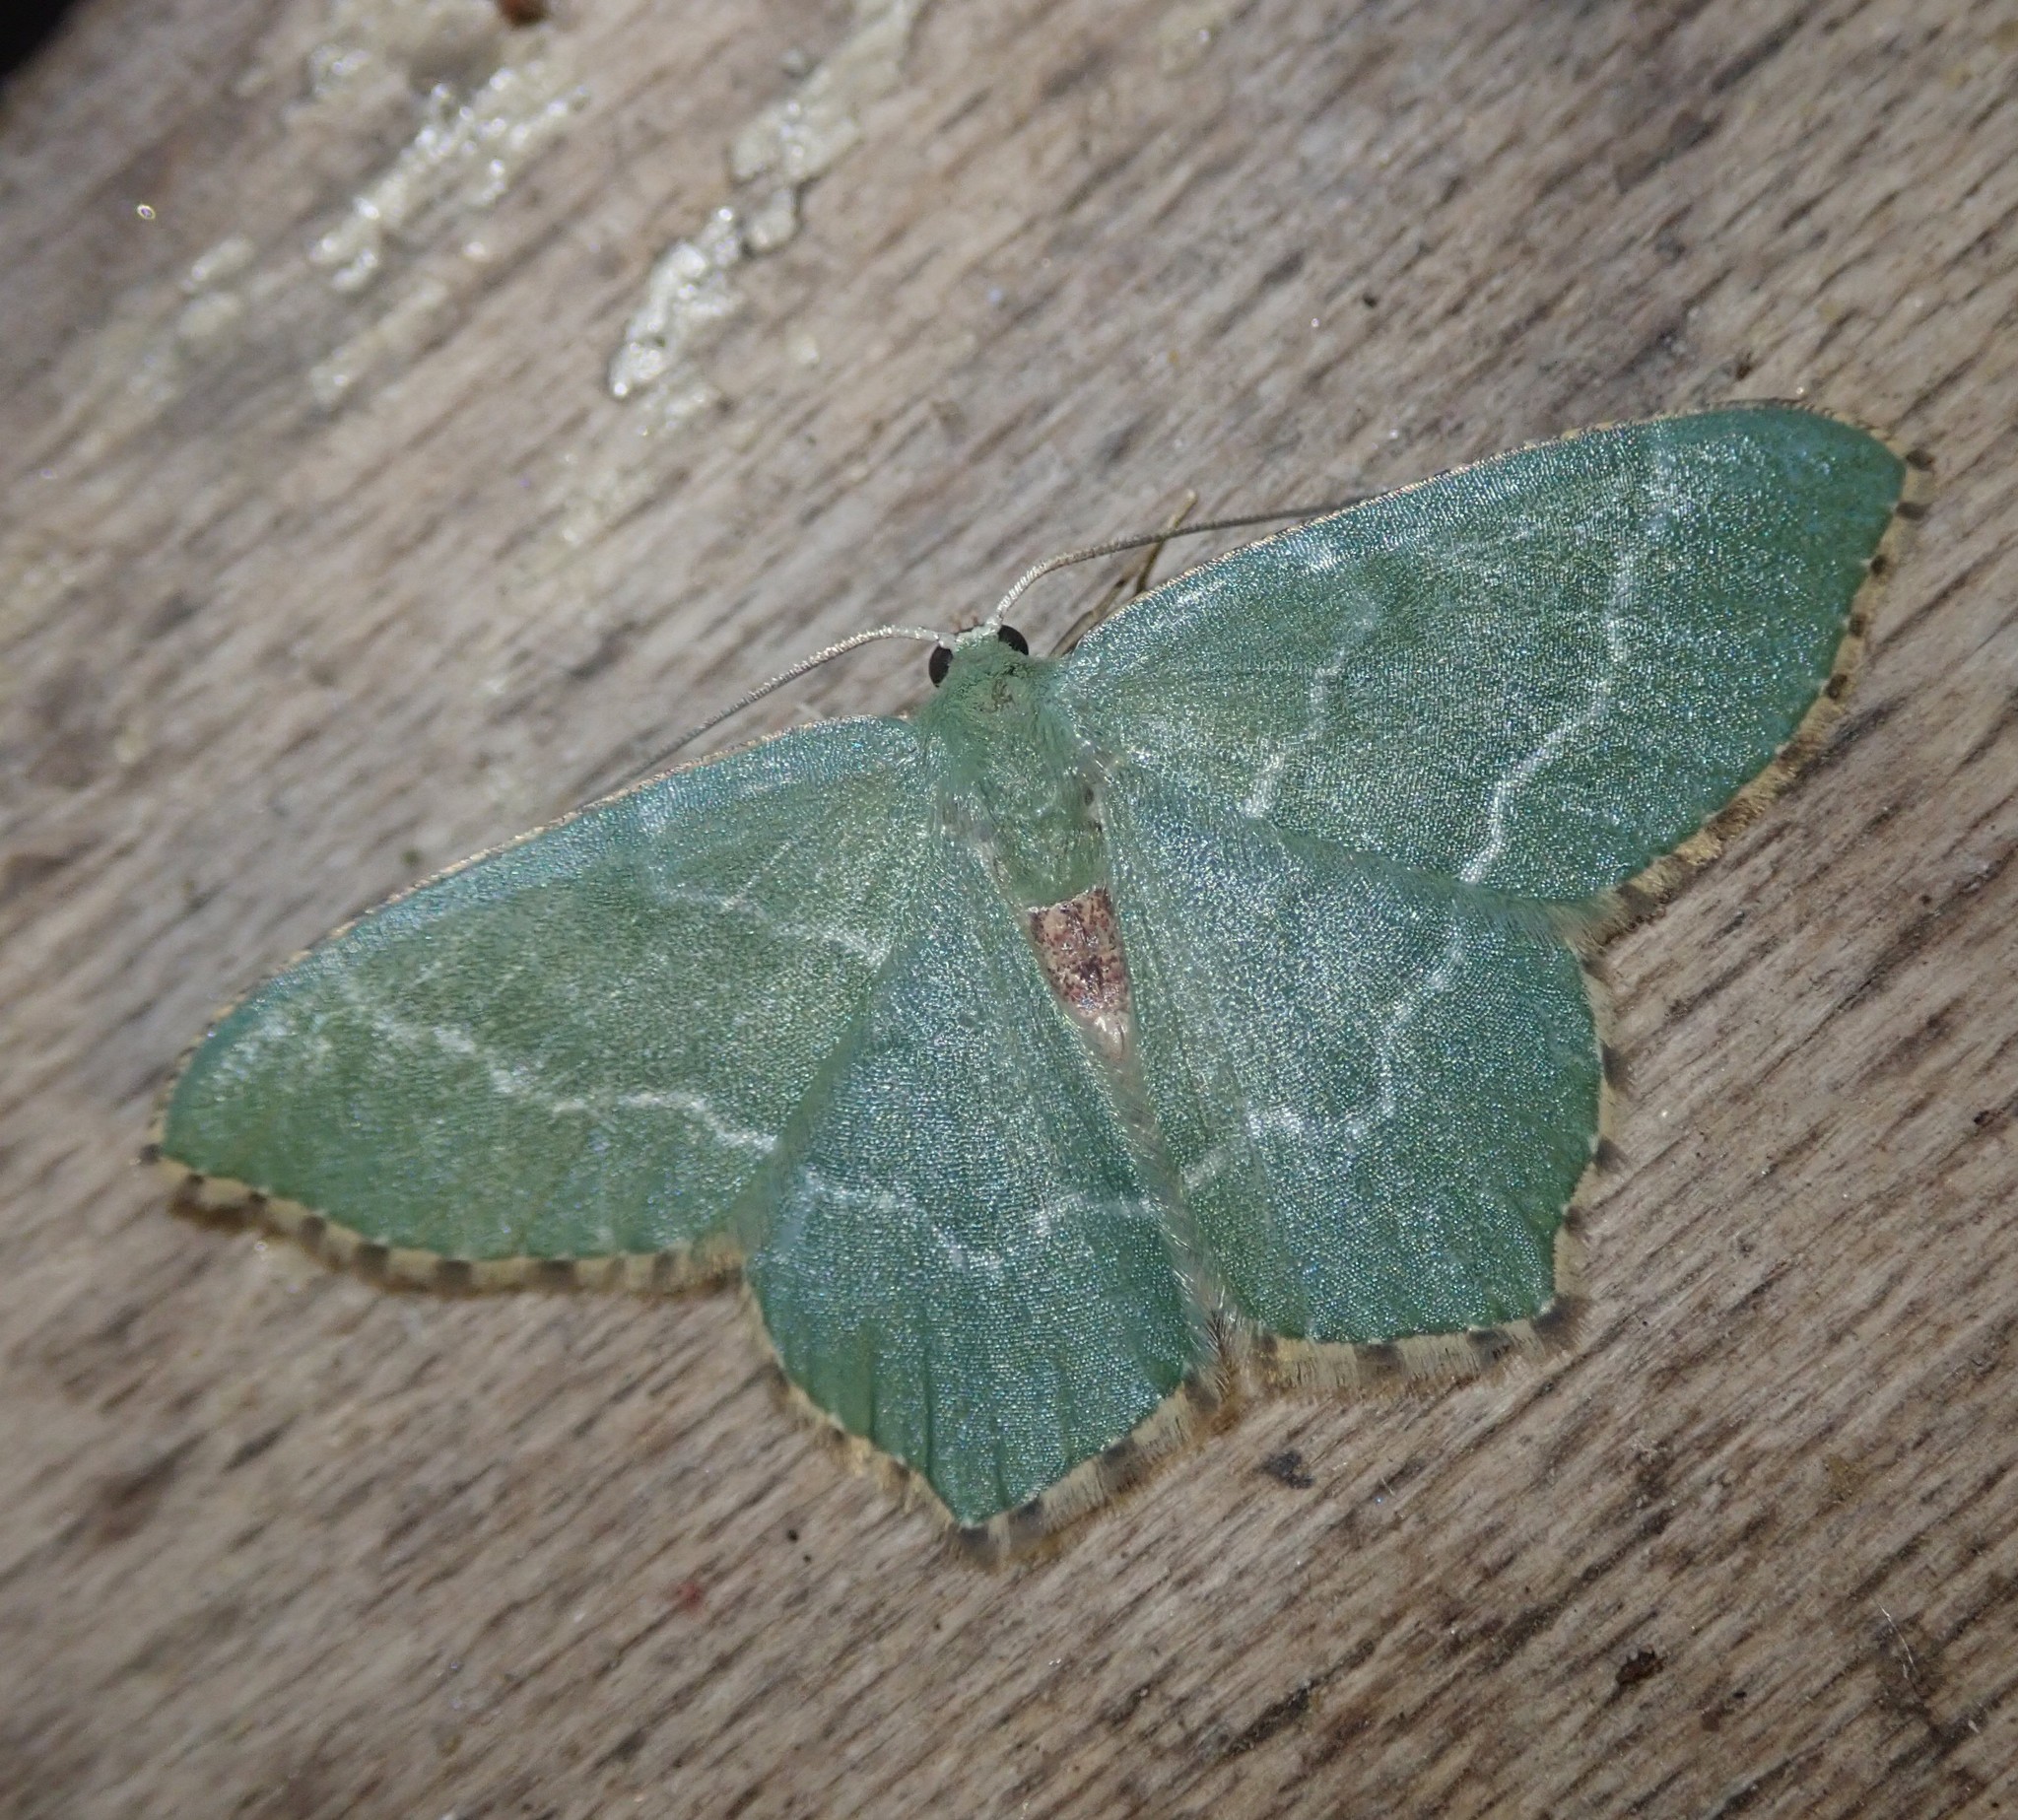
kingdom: Animalia
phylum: Arthropoda
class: Insecta
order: Lepidoptera
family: Geometridae
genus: Hemithea
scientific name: Hemithea aestivaria
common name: Common emerald
